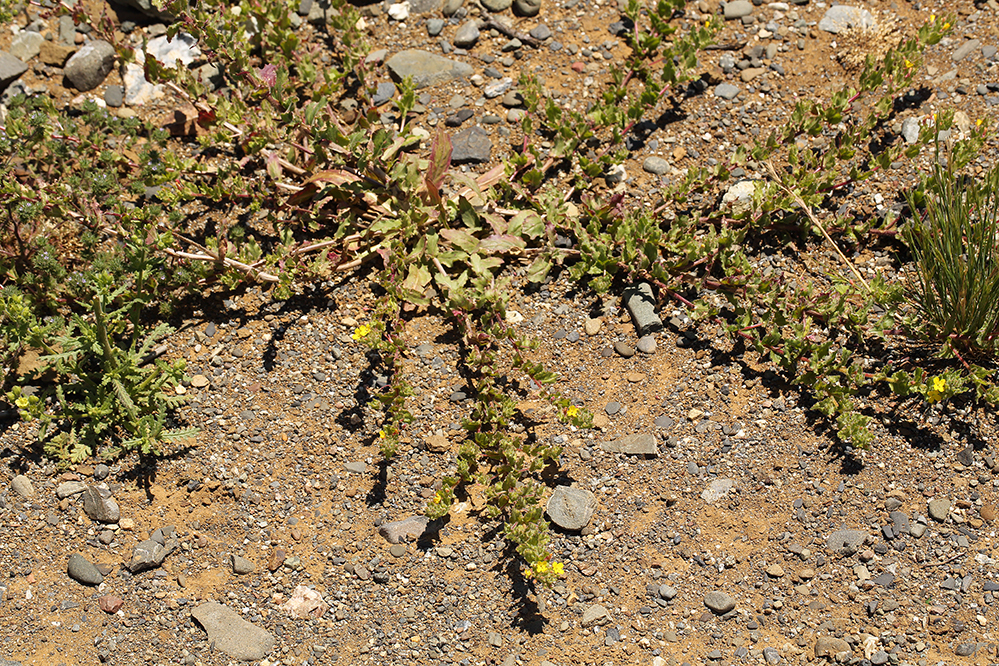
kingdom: Plantae
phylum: Tracheophyta
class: Magnoliopsida
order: Myrtales
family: Onagraceae
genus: Camissoniopsis
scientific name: Camissoniopsis hirtella
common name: Santa cruz island suncup
